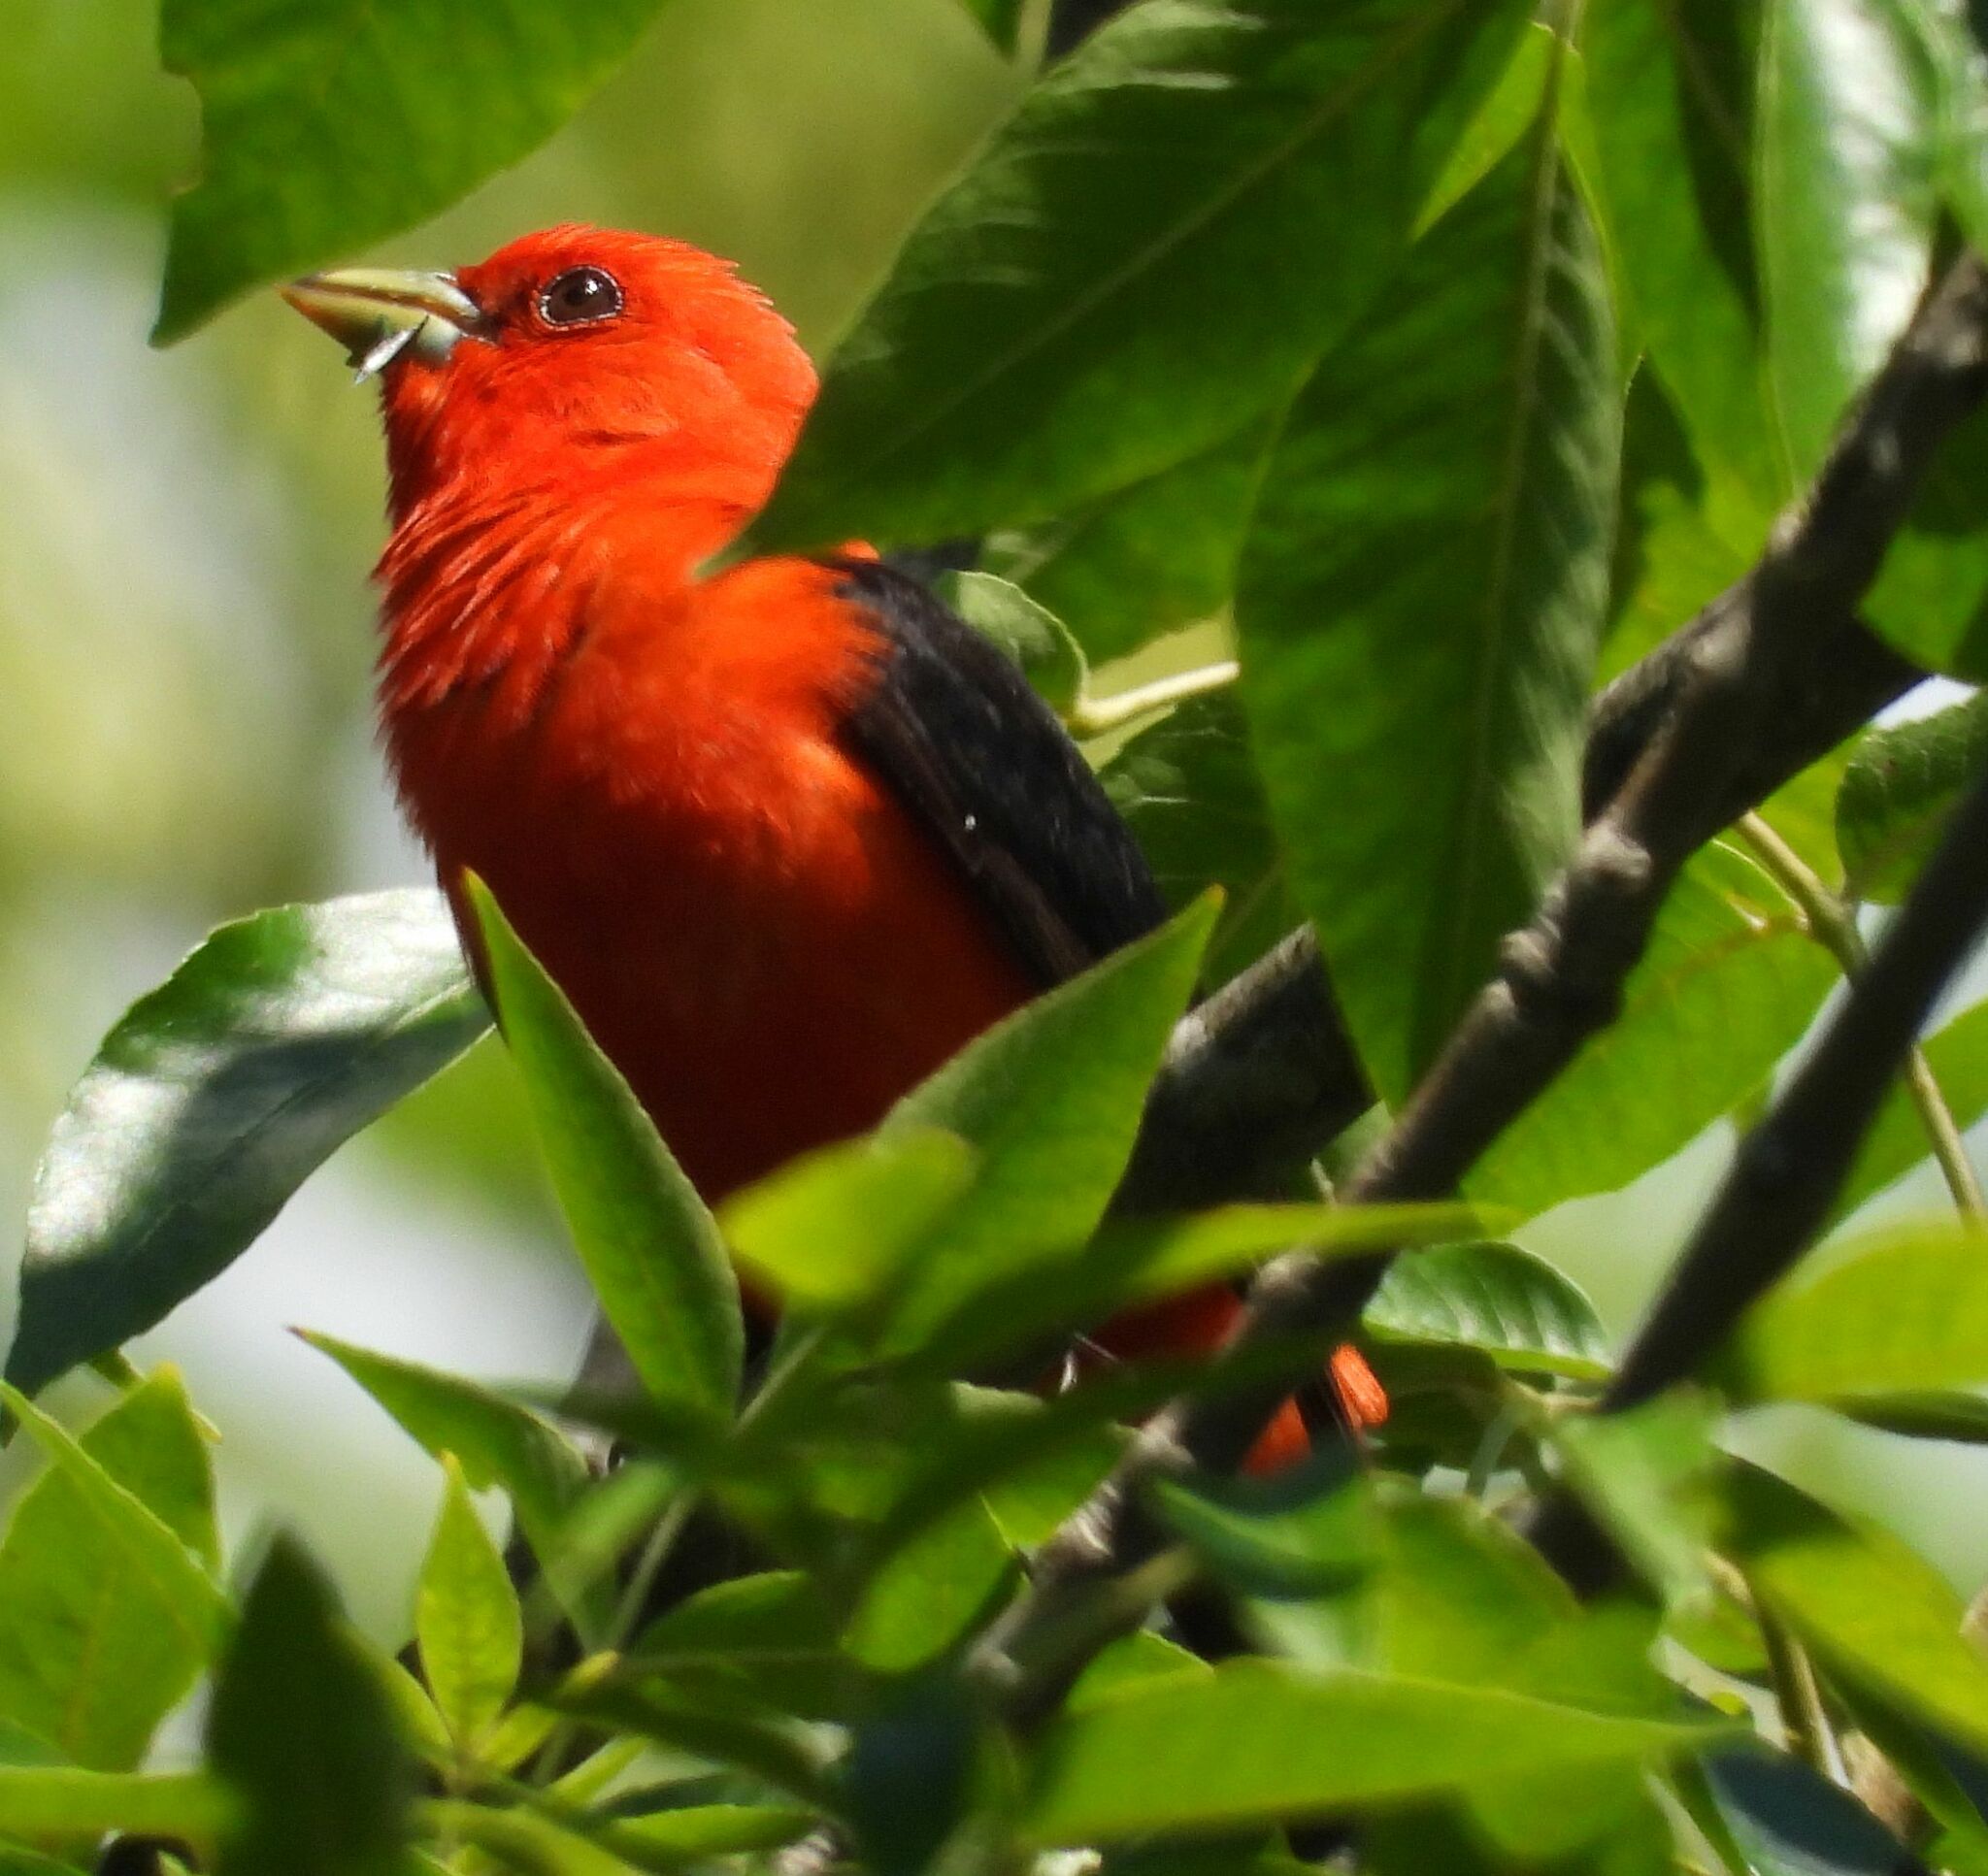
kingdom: Animalia
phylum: Chordata
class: Aves
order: Passeriformes
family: Cardinalidae
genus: Piranga
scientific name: Piranga olivacea
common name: Scarlet tanager
